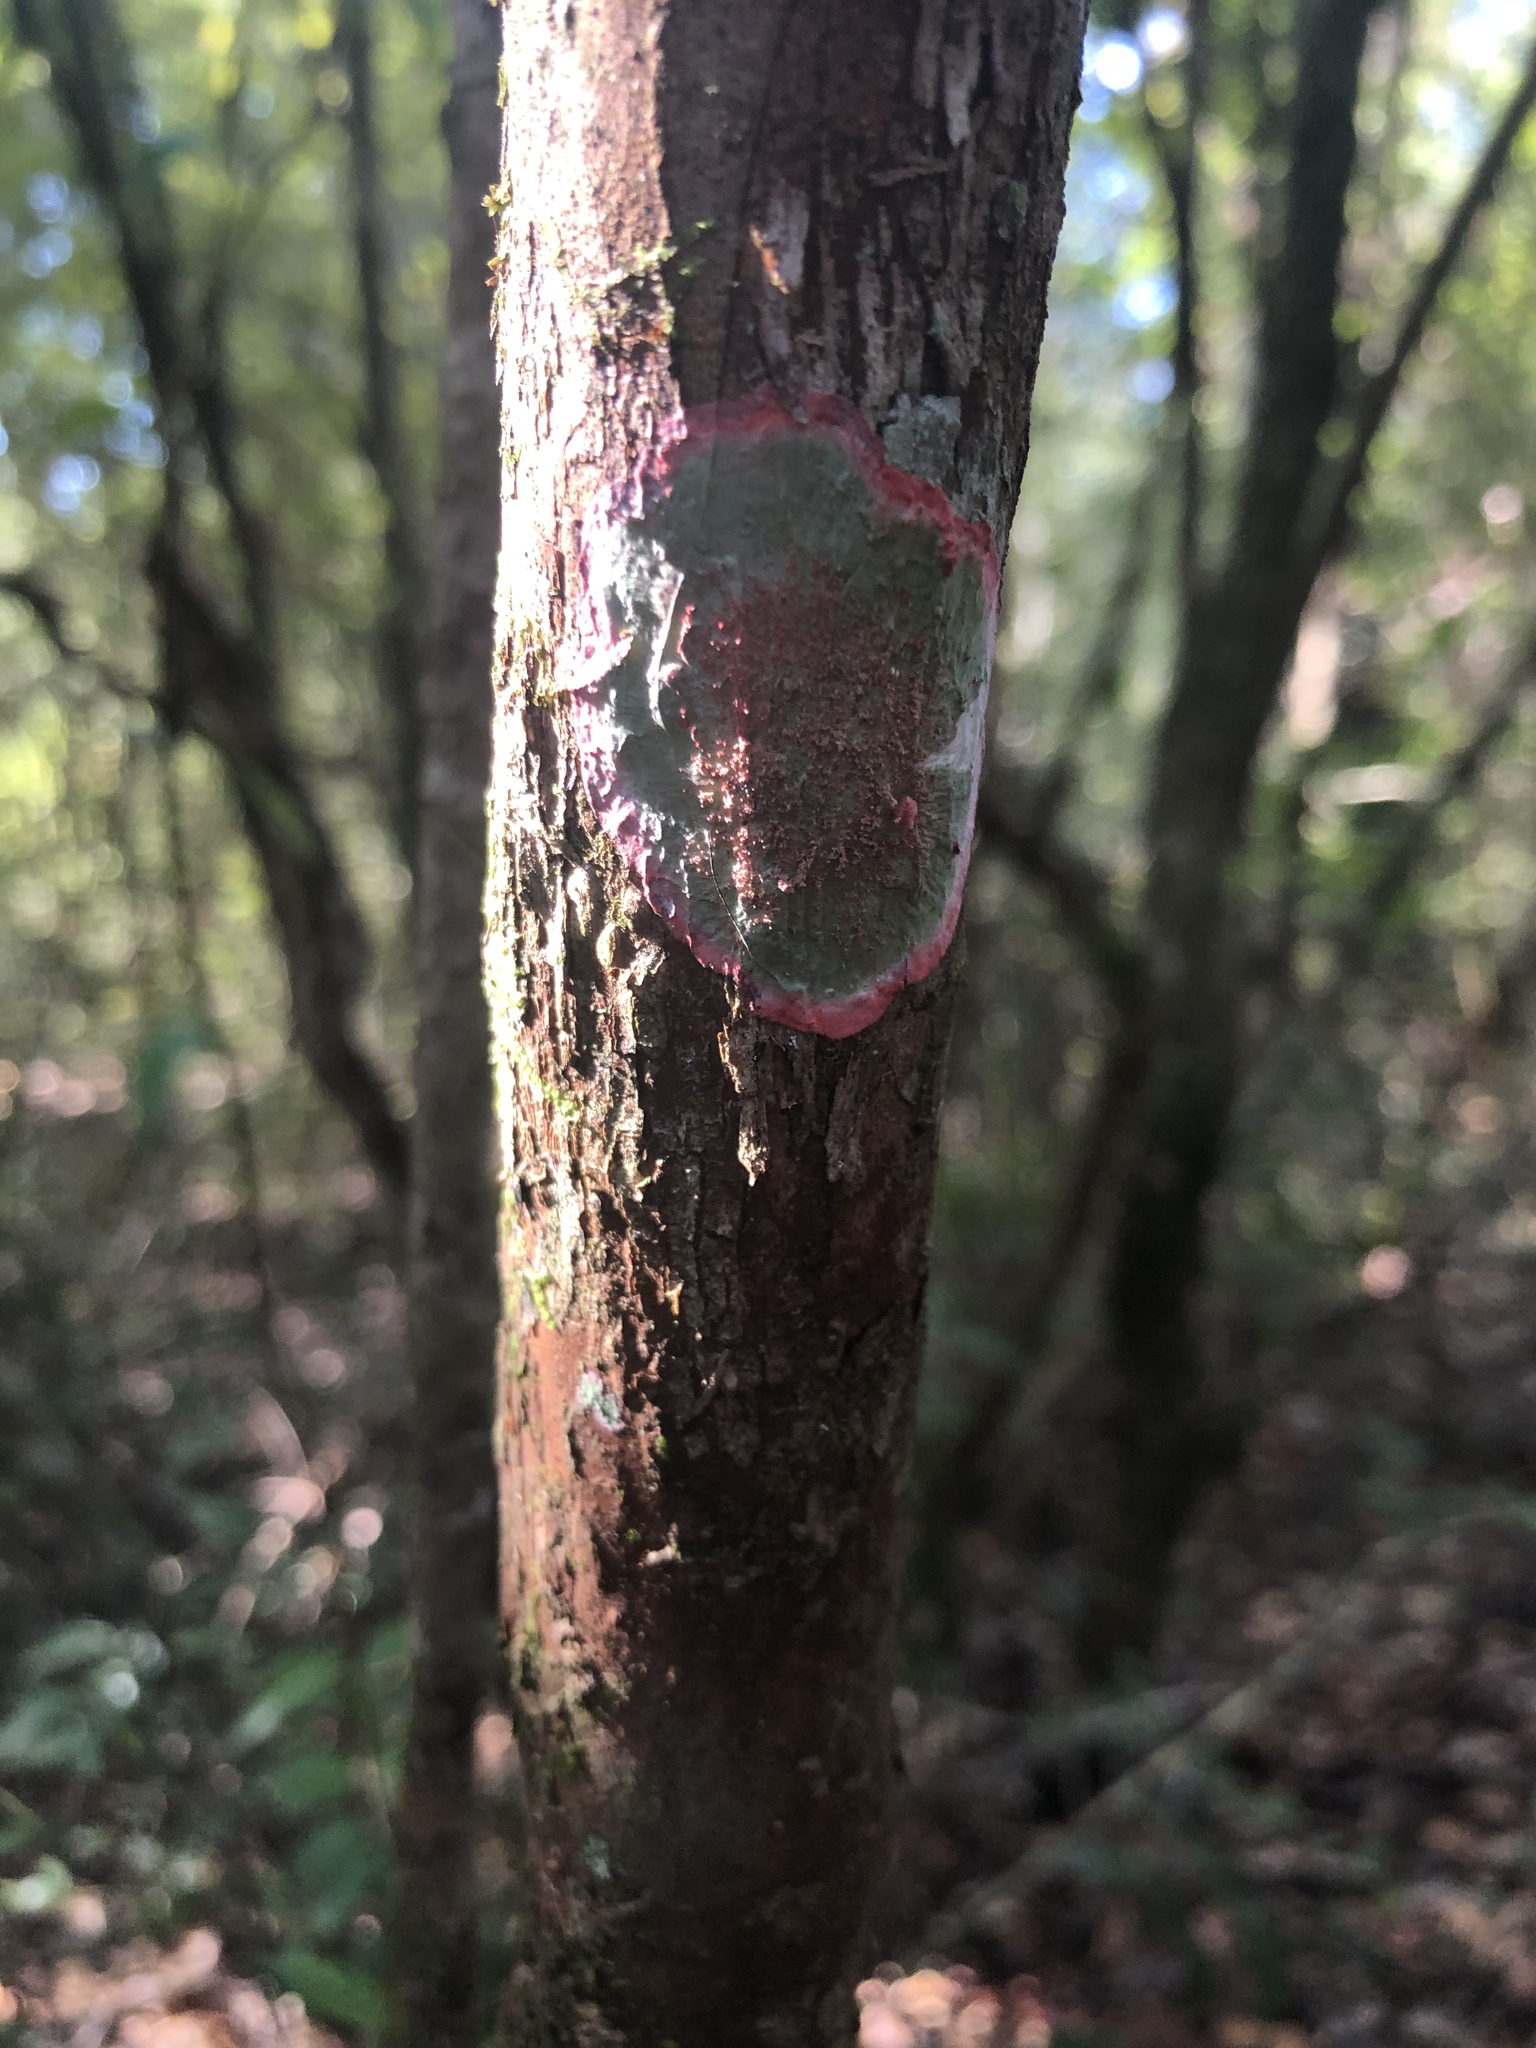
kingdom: Fungi
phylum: Ascomycota
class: Arthoniomycetes
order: Arthoniales
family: Arthoniaceae
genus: Herpothallon
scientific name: Herpothallon rubrocinctum
